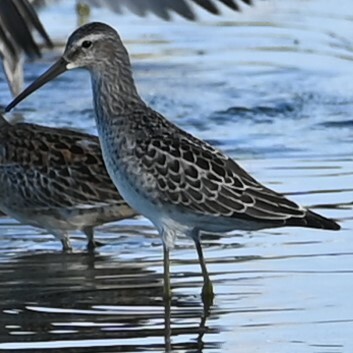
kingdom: Animalia
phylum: Chordata
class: Aves
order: Charadriiformes
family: Scolopacidae
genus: Calidris
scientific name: Calidris himantopus
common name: Stilt sandpiper
